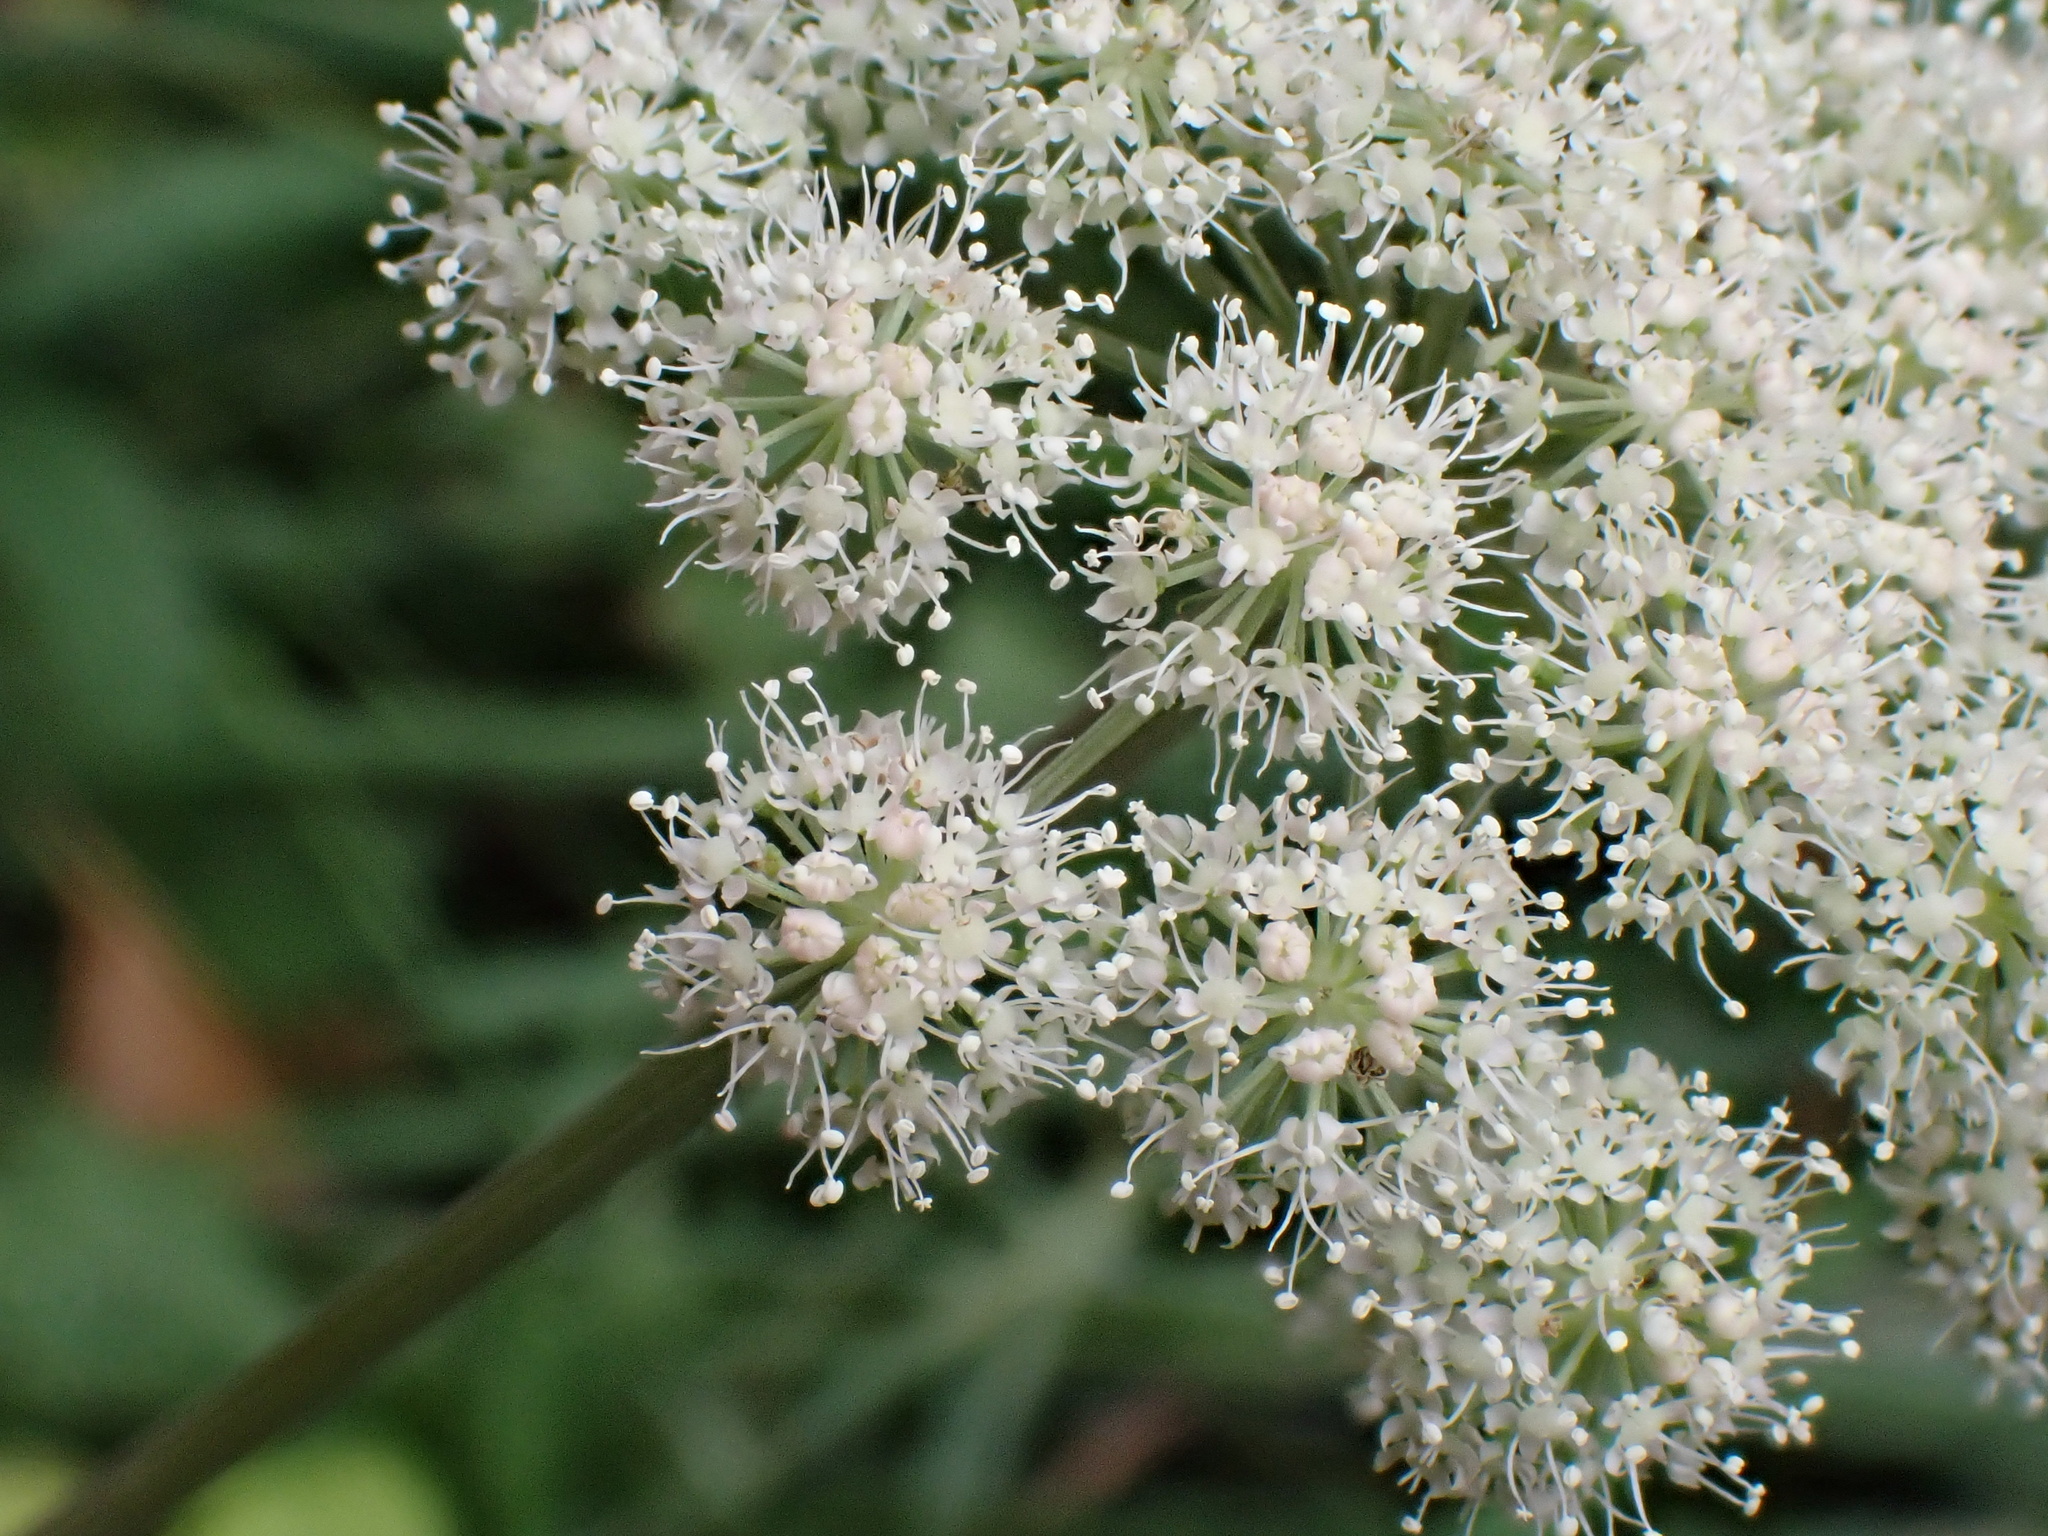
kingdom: Plantae
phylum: Tracheophyta
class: Magnoliopsida
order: Apiales
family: Apiaceae
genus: Angelica
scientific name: Angelica sylvestris
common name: Wild angelica
